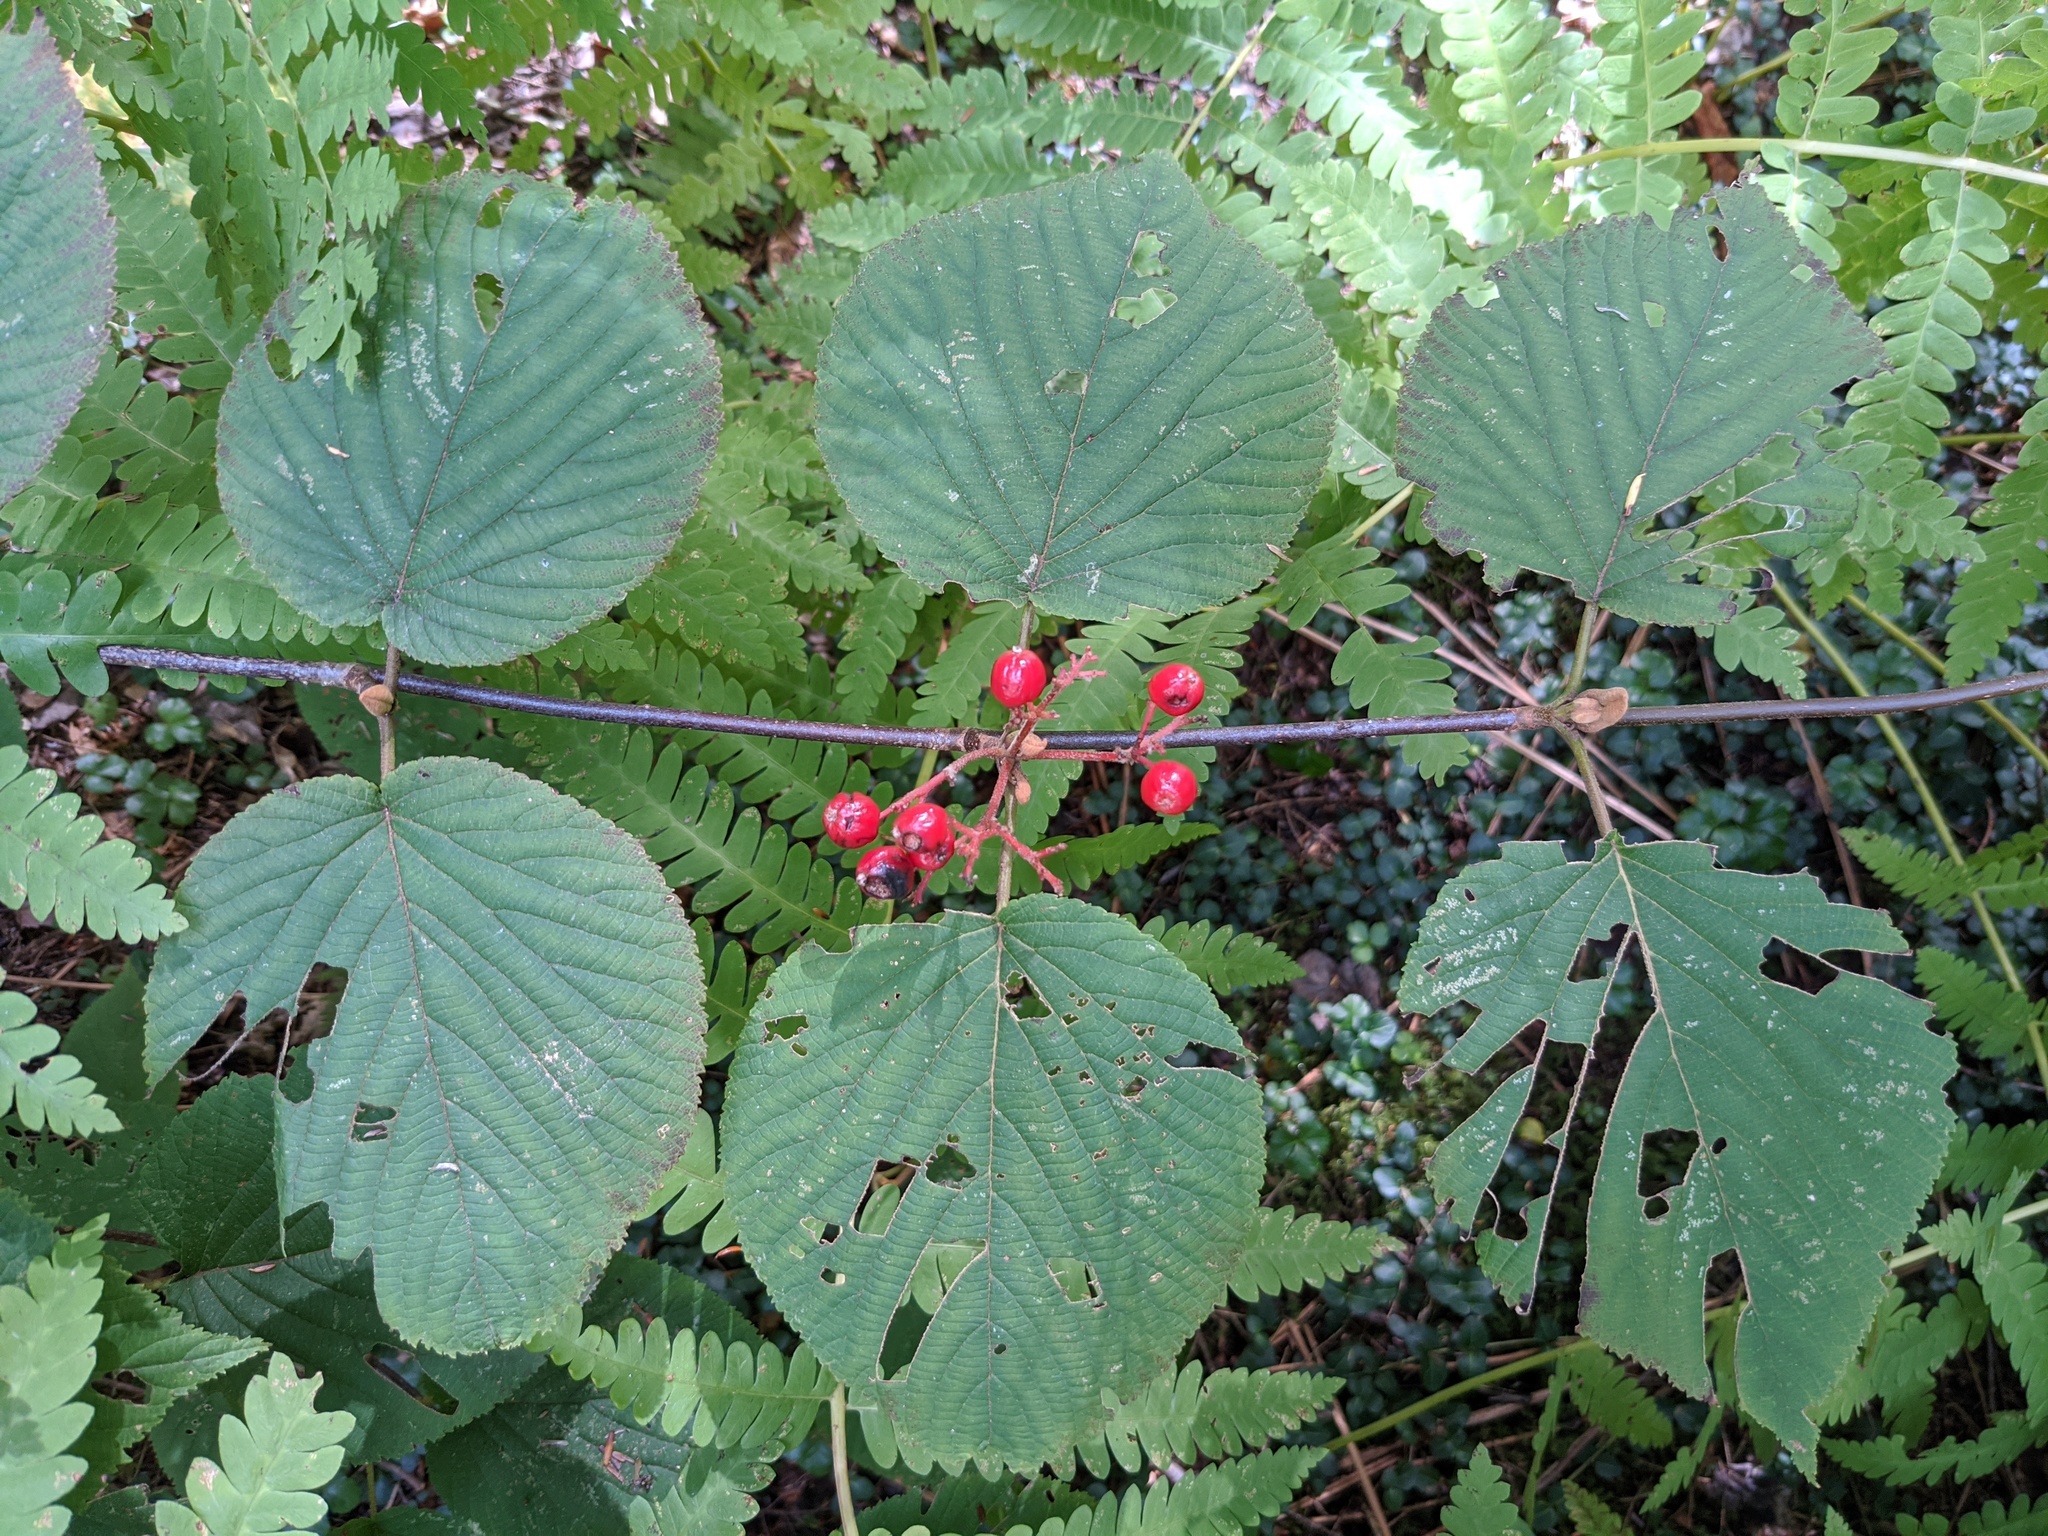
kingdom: Plantae
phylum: Tracheophyta
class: Magnoliopsida
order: Dipsacales
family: Viburnaceae
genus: Viburnum
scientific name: Viburnum lantanoides
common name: Hobblebush
